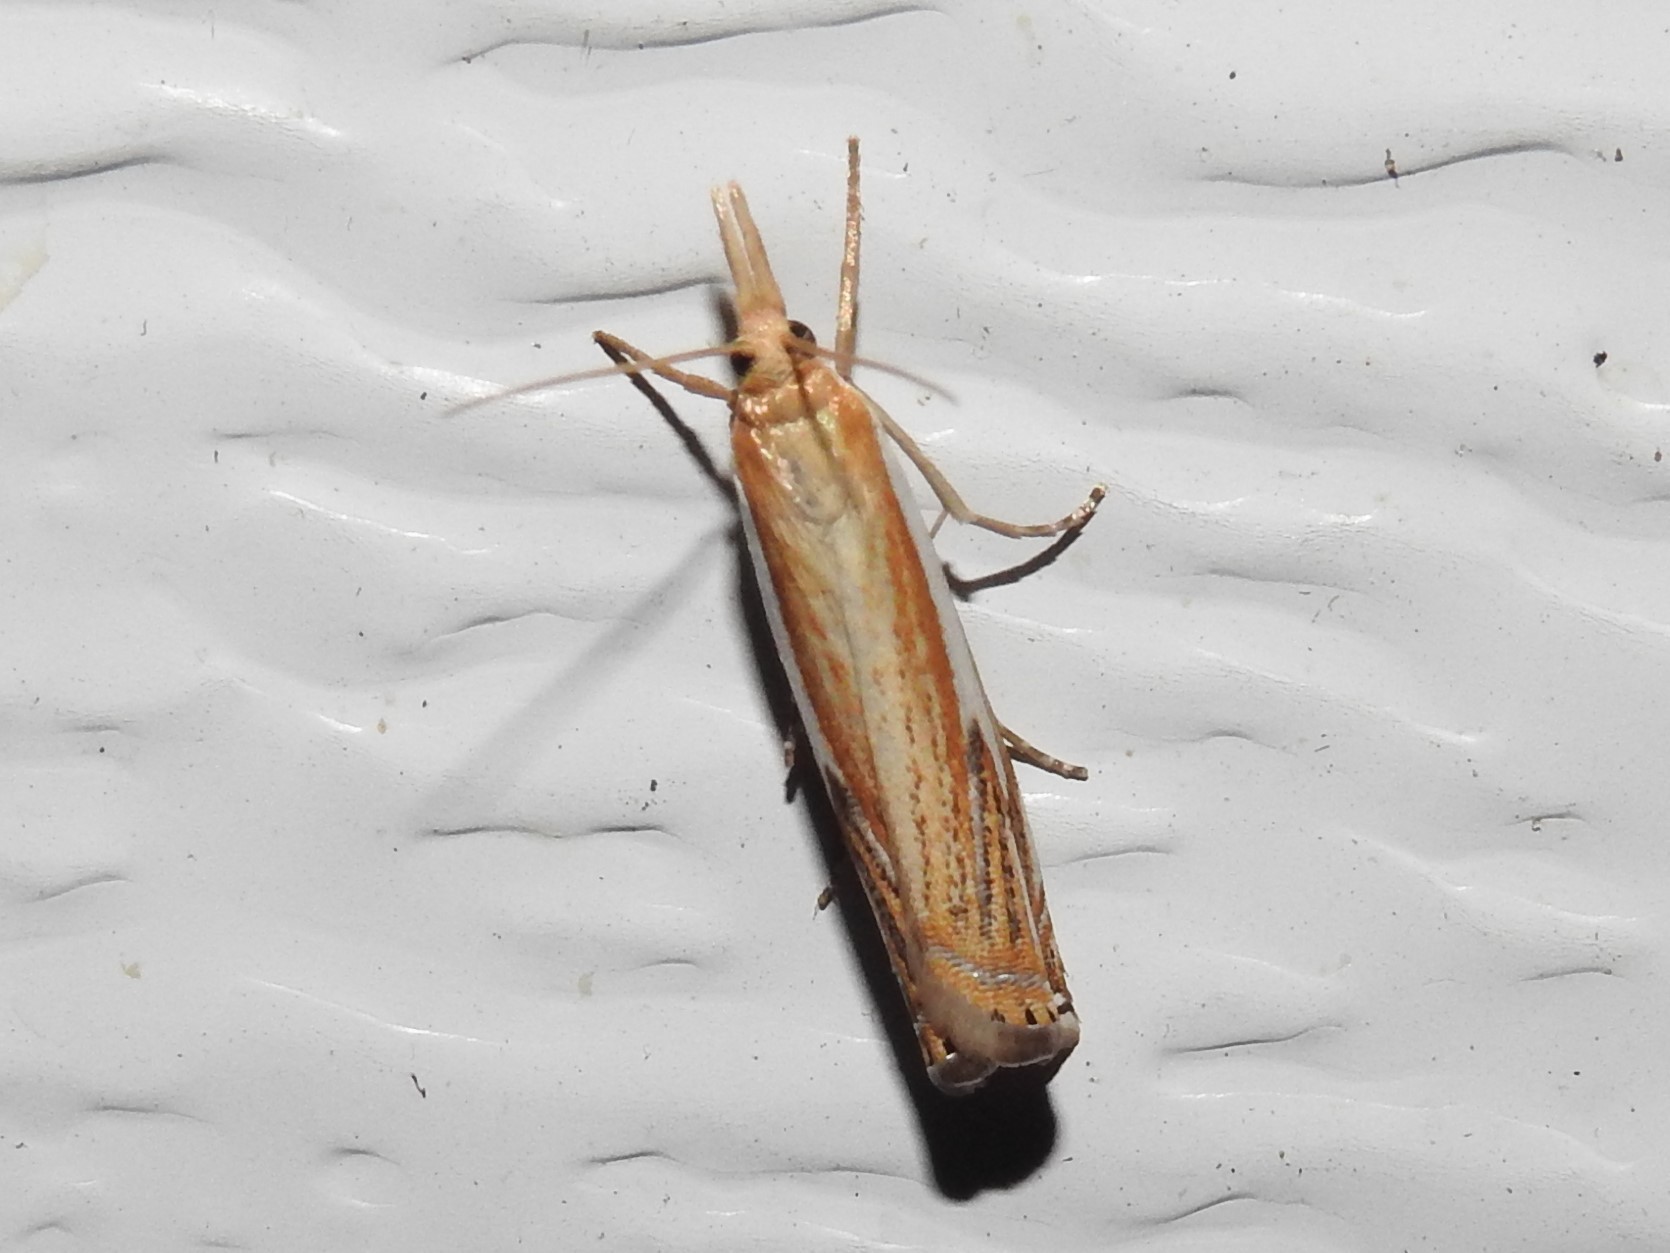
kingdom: Animalia
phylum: Arthropoda
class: Insecta
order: Lepidoptera
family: Crambidae
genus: Crambus
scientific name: Crambus
